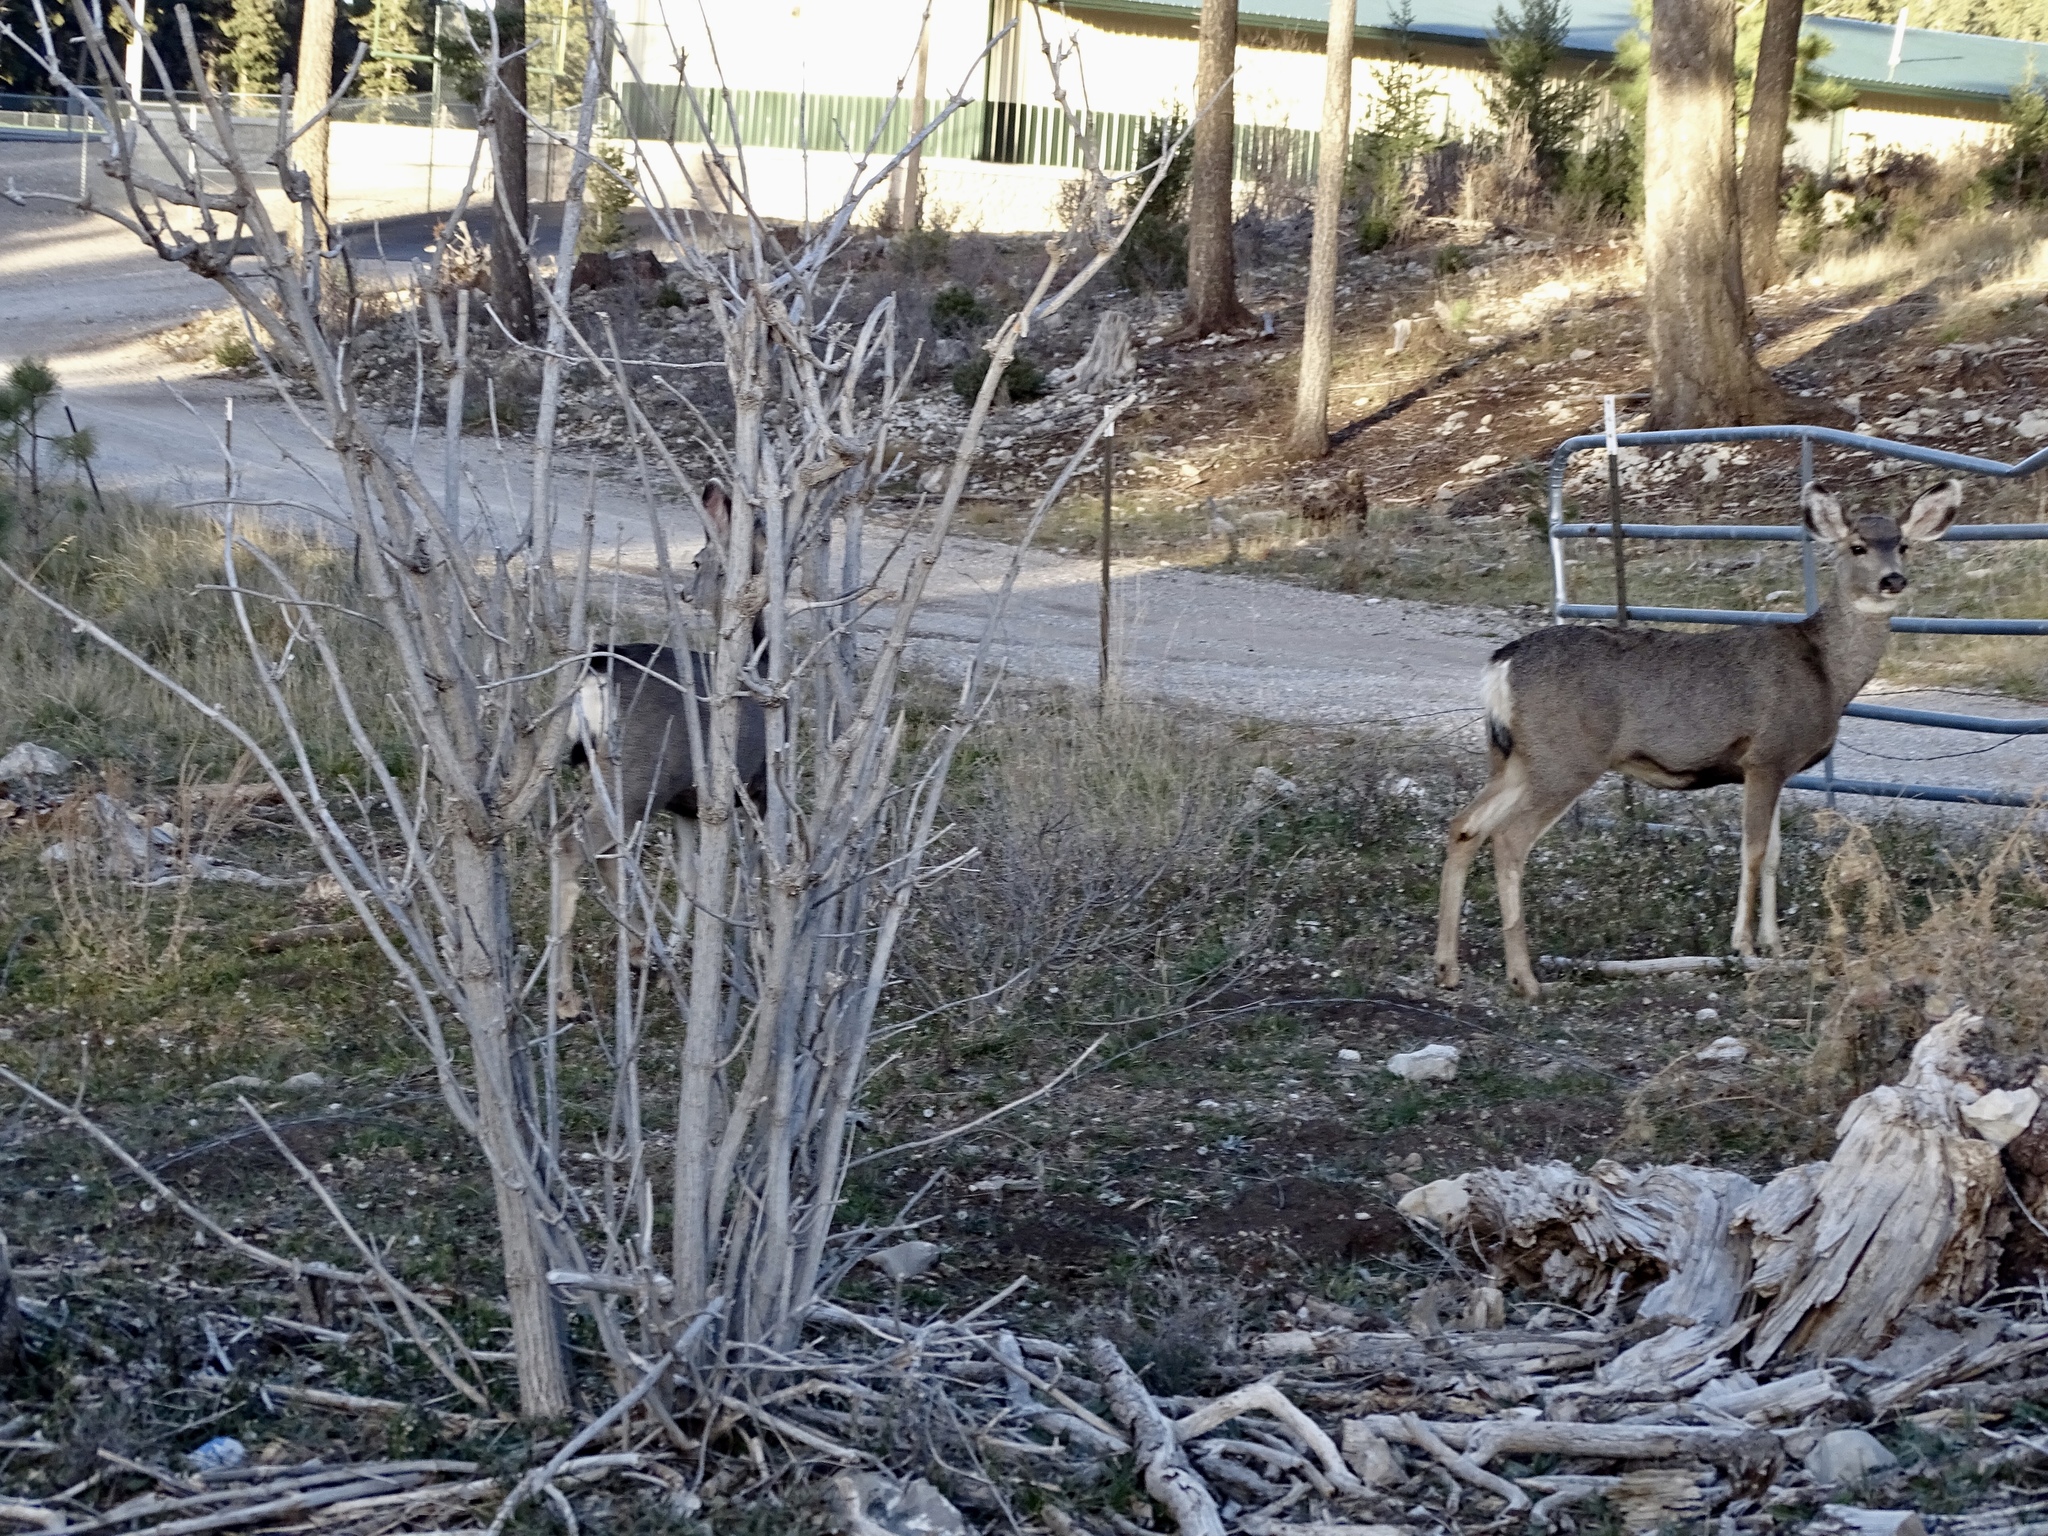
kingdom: Animalia
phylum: Chordata
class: Mammalia
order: Artiodactyla
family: Cervidae
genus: Odocoileus
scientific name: Odocoileus hemionus
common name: Mule deer
